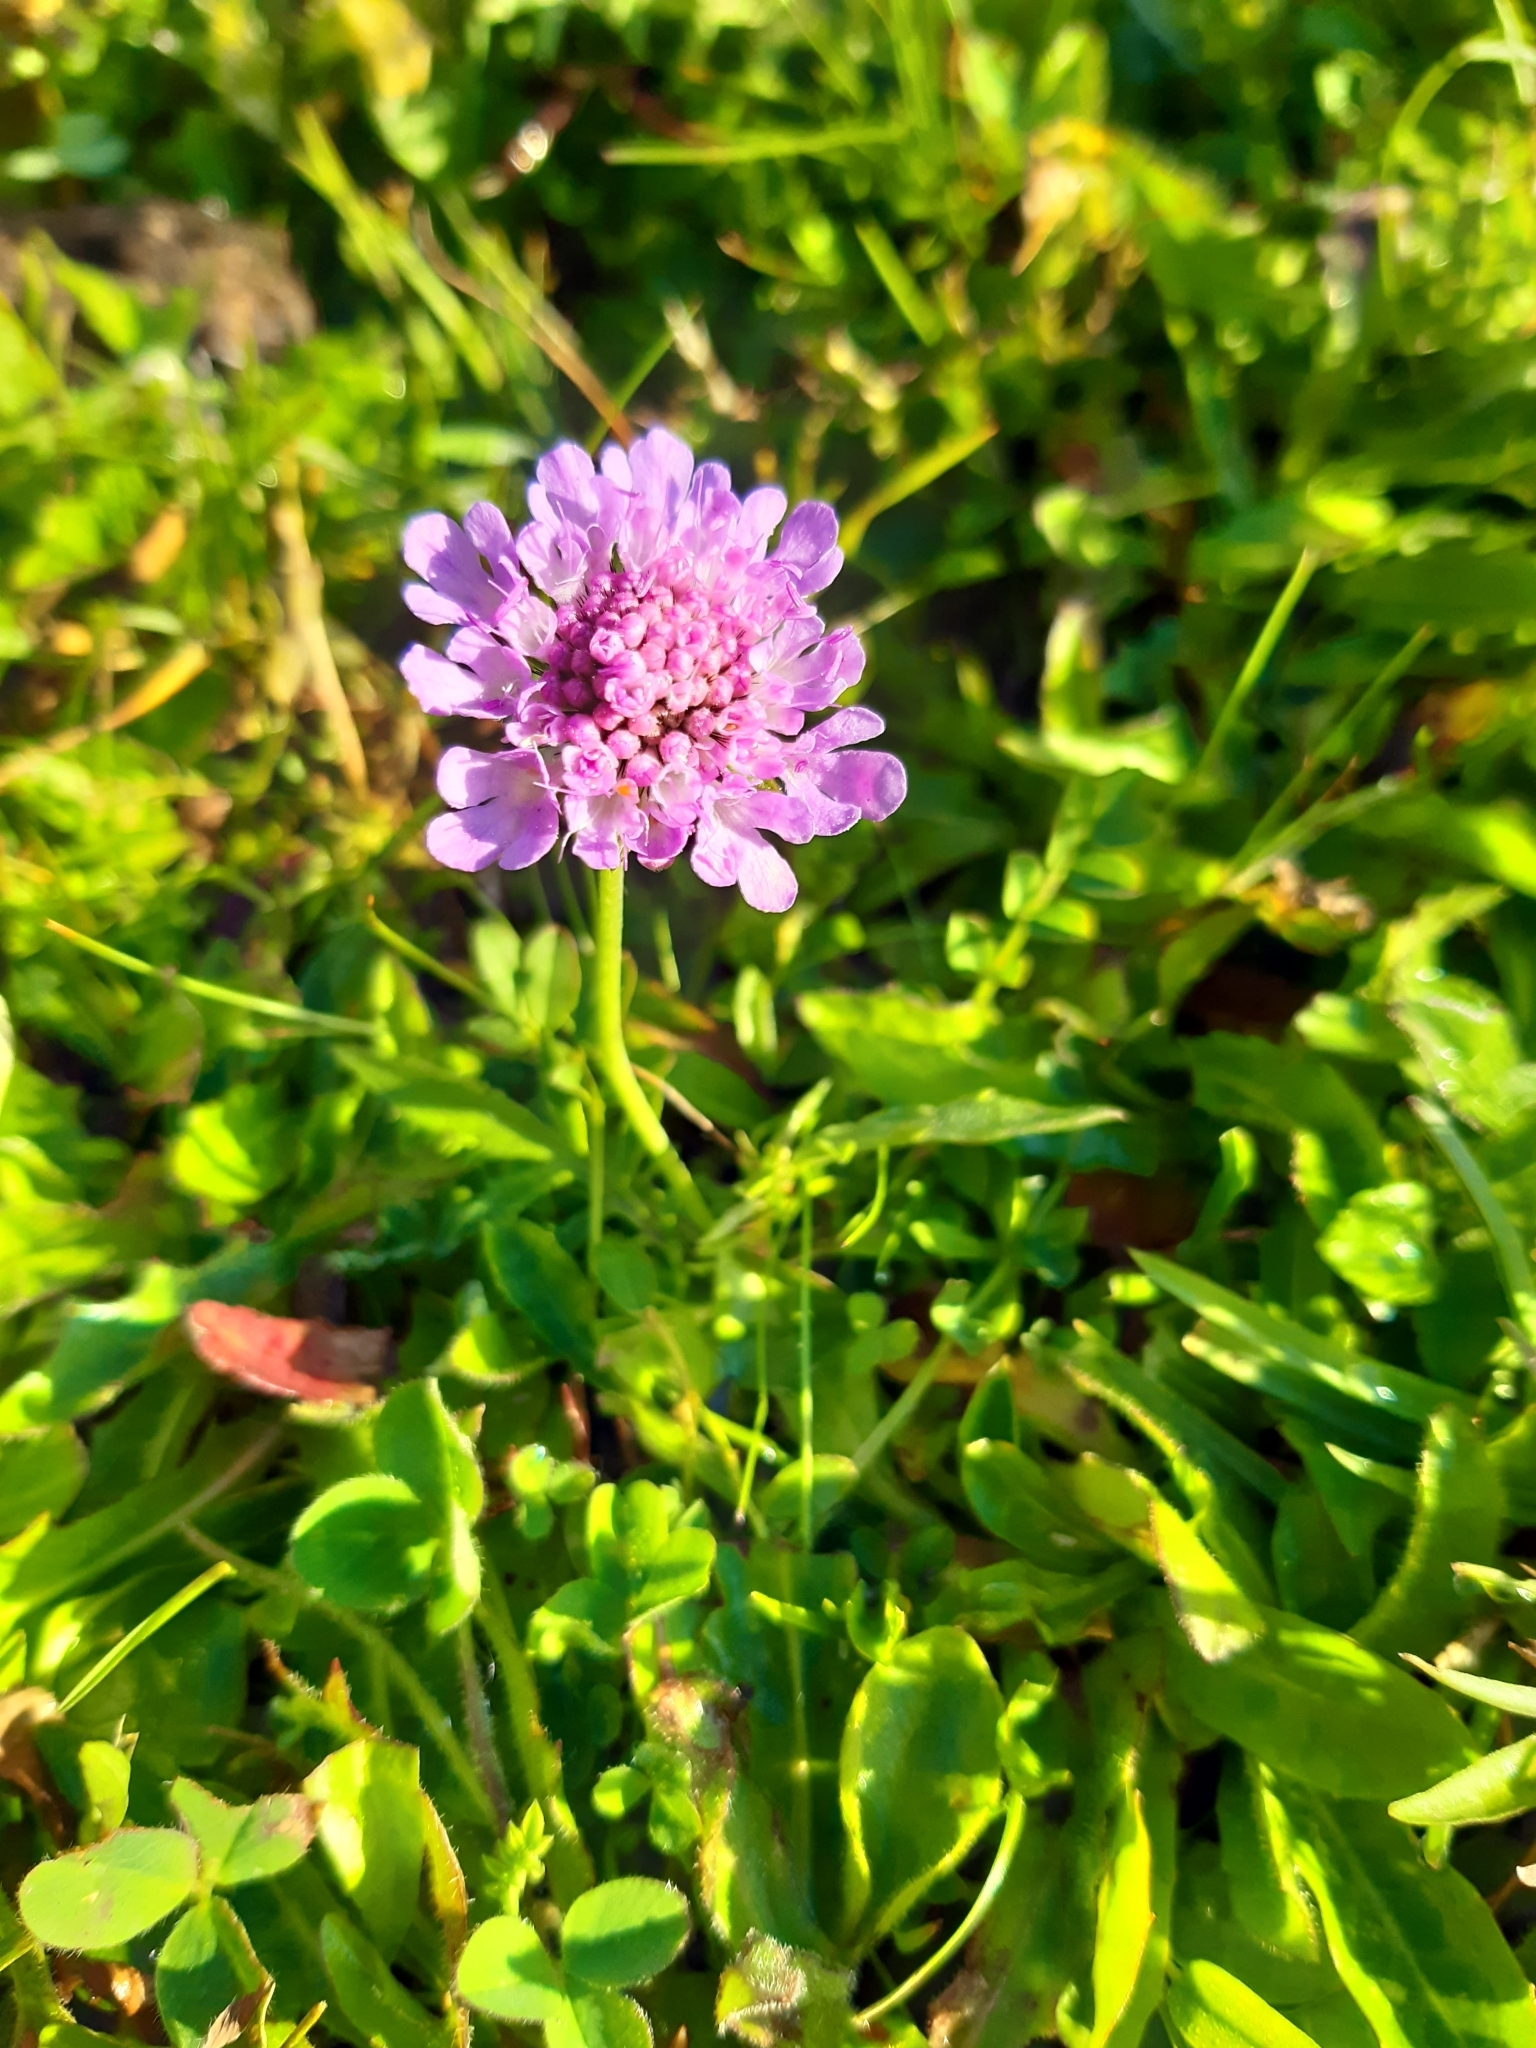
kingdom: Plantae
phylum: Tracheophyta
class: Magnoliopsida
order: Dipsacales
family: Caprifoliaceae
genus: Scabiosa
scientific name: Scabiosa lucida
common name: Shining scabious
